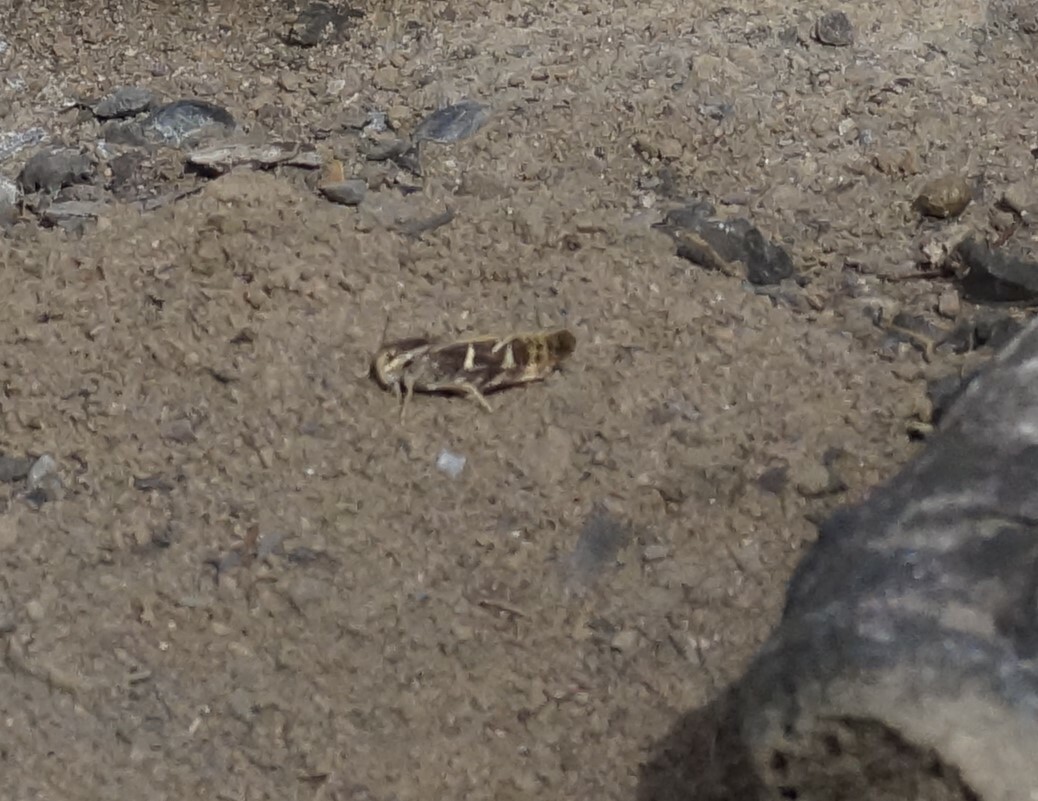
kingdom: Animalia
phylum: Arthropoda
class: Insecta
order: Orthoptera
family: Acrididae
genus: Gastrimargus
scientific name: Gastrimargus musicus
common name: Yellow-winged locust
